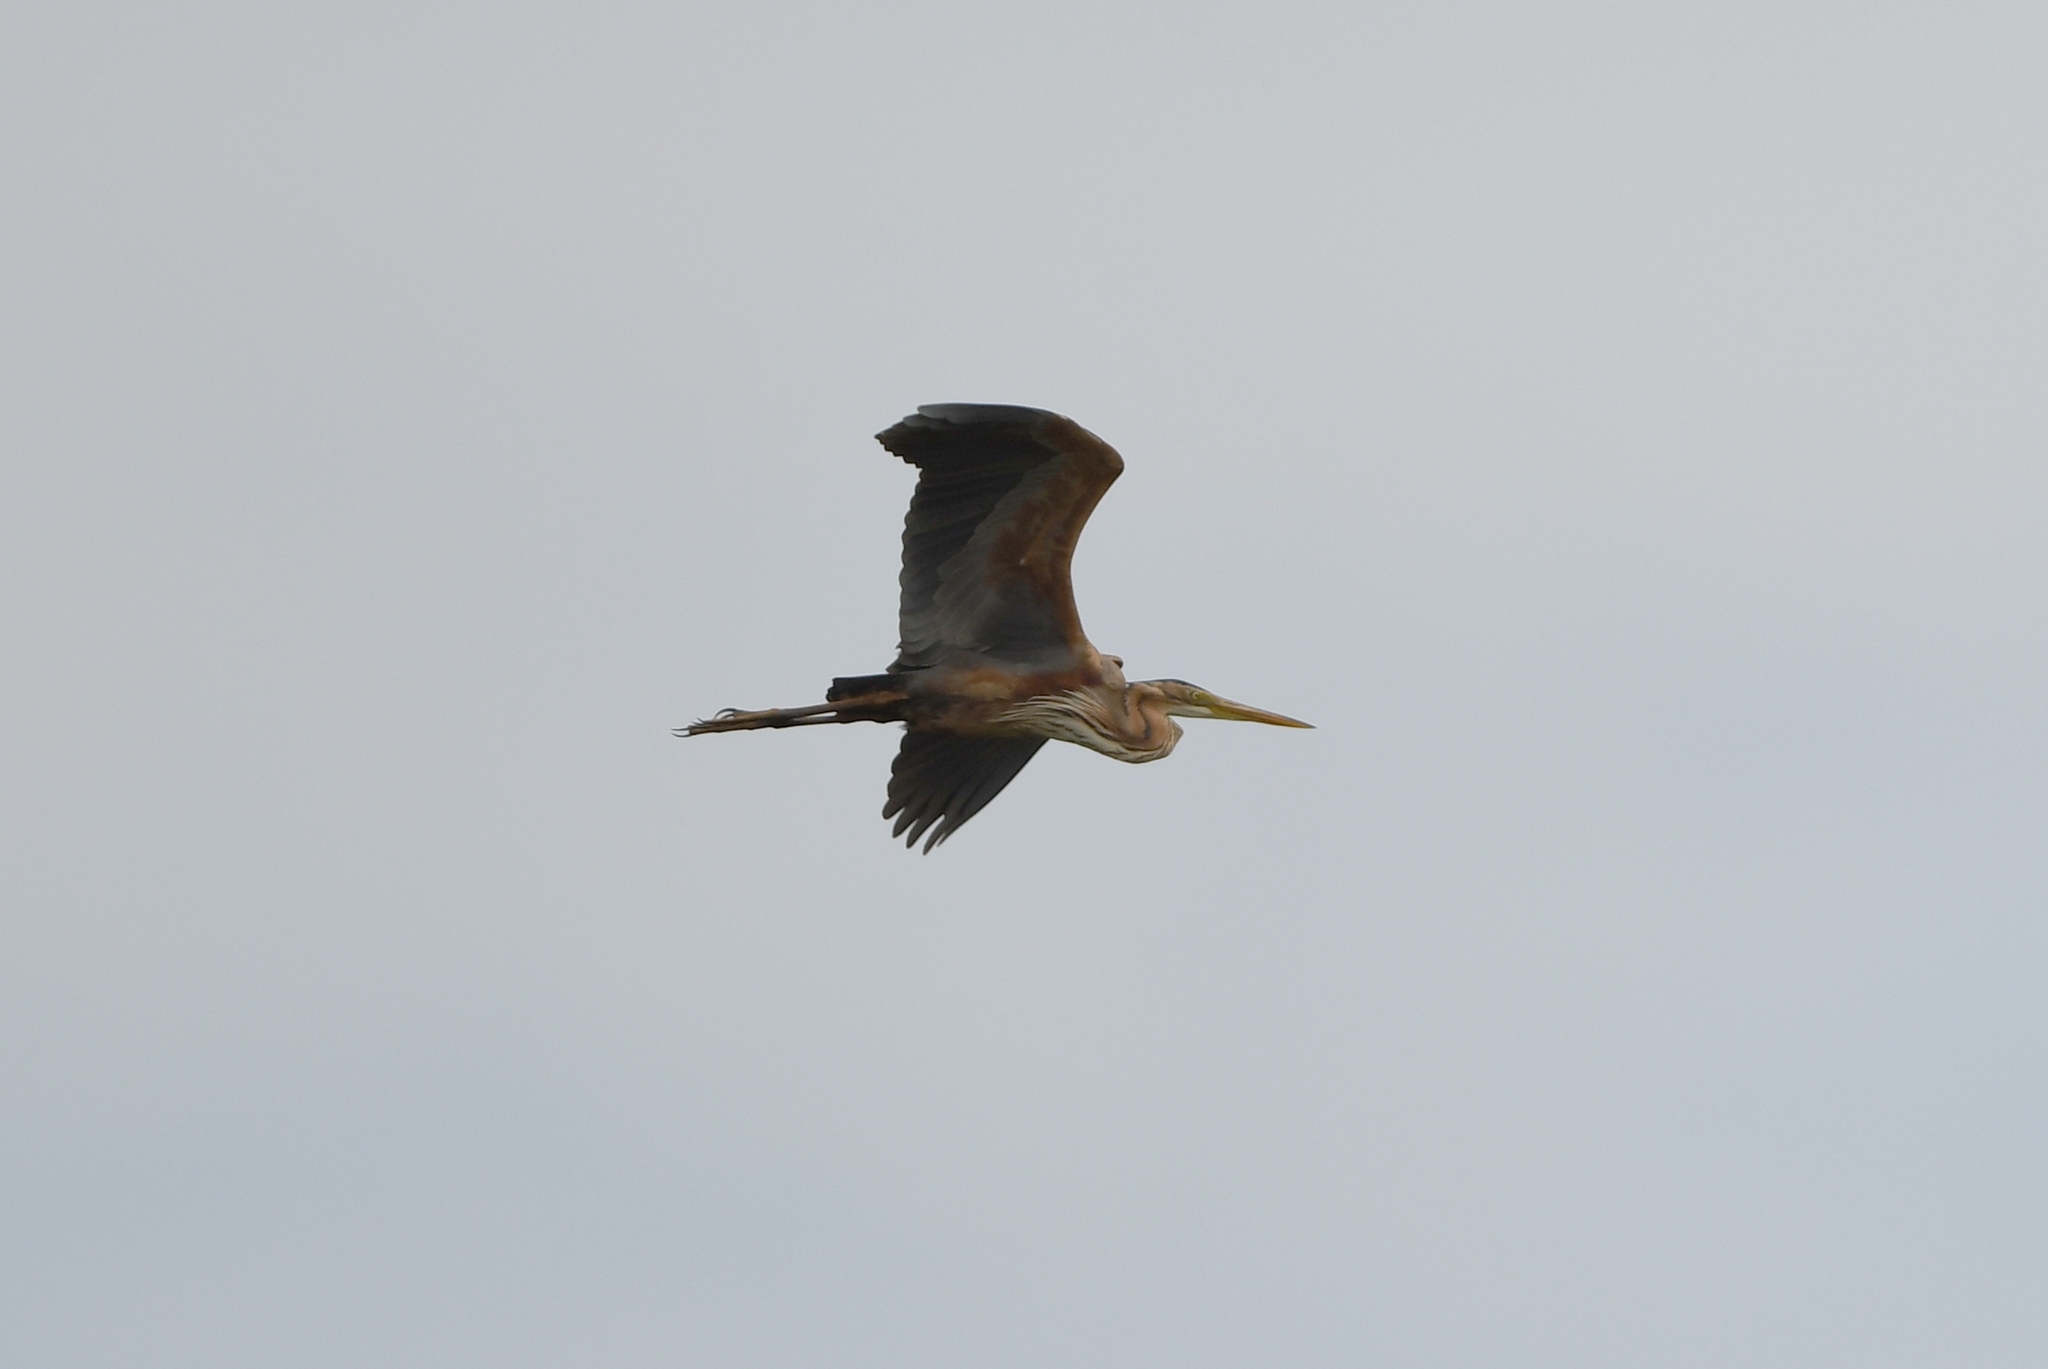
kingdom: Animalia
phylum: Chordata
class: Aves
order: Pelecaniformes
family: Ardeidae
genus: Ardea
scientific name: Ardea purpurea
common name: Purple heron
